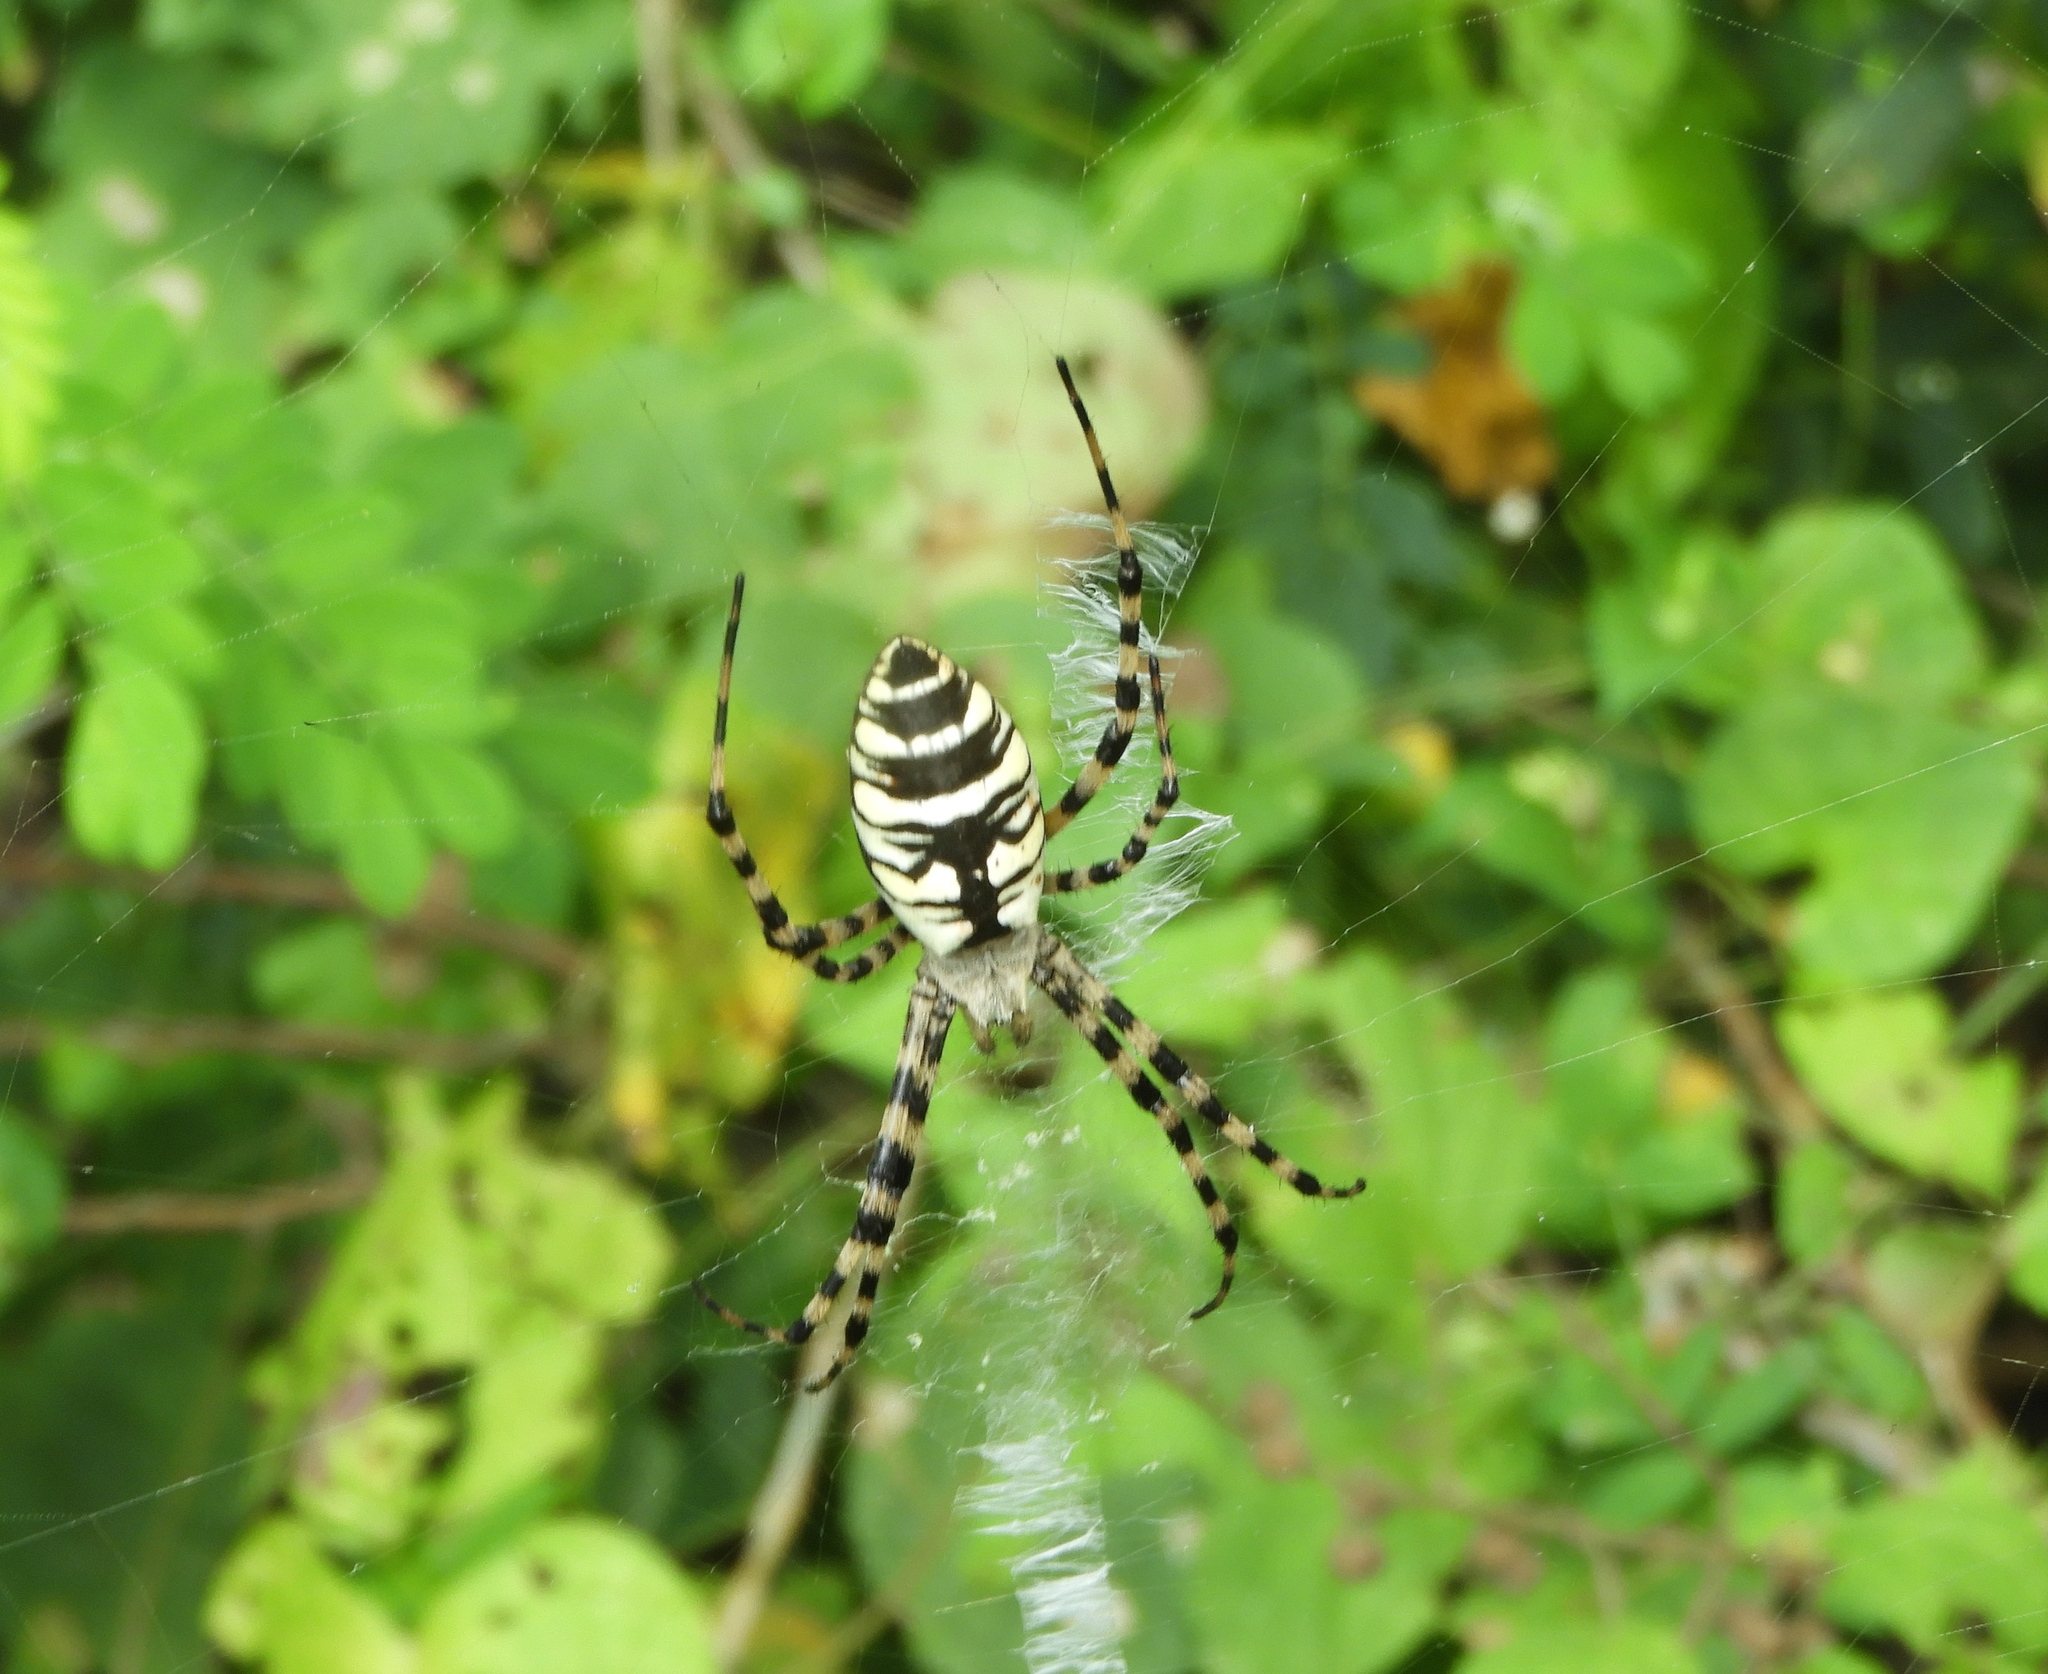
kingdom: Animalia
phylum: Arthropoda
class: Arachnida
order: Araneae
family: Araneidae
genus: Argiope
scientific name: Argiope aurantia
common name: Orb weavers
